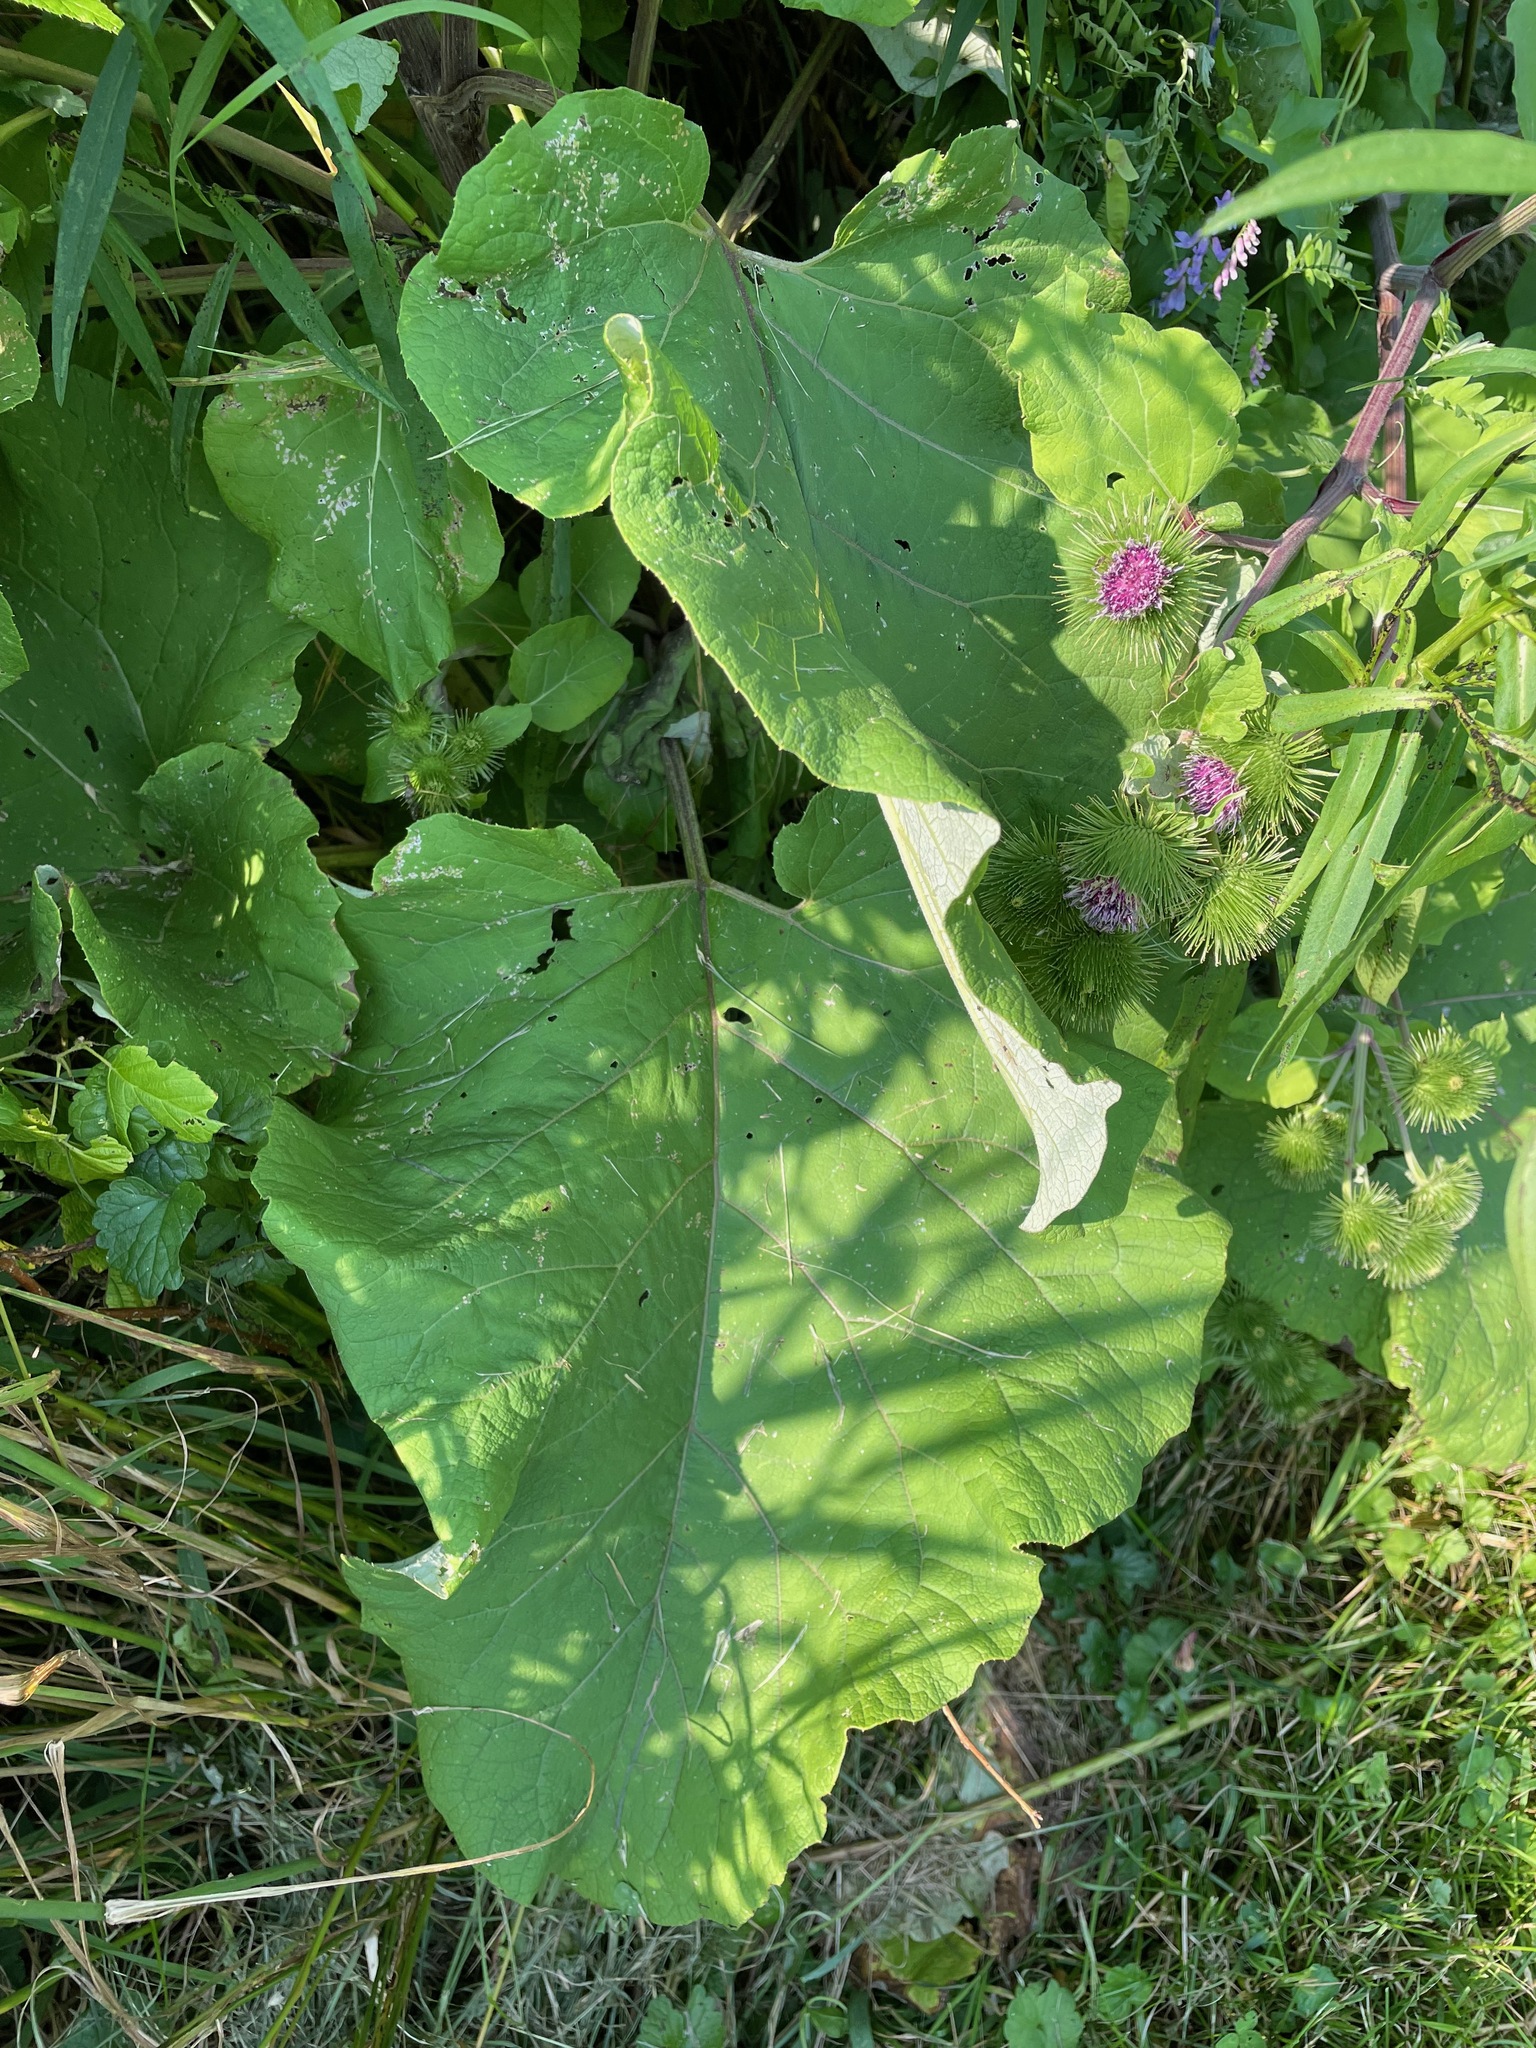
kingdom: Plantae
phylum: Tracheophyta
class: Magnoliopsida
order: Asterales
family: Asteraceae
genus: Arctium
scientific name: Arctium lappa
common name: Greater burdock
